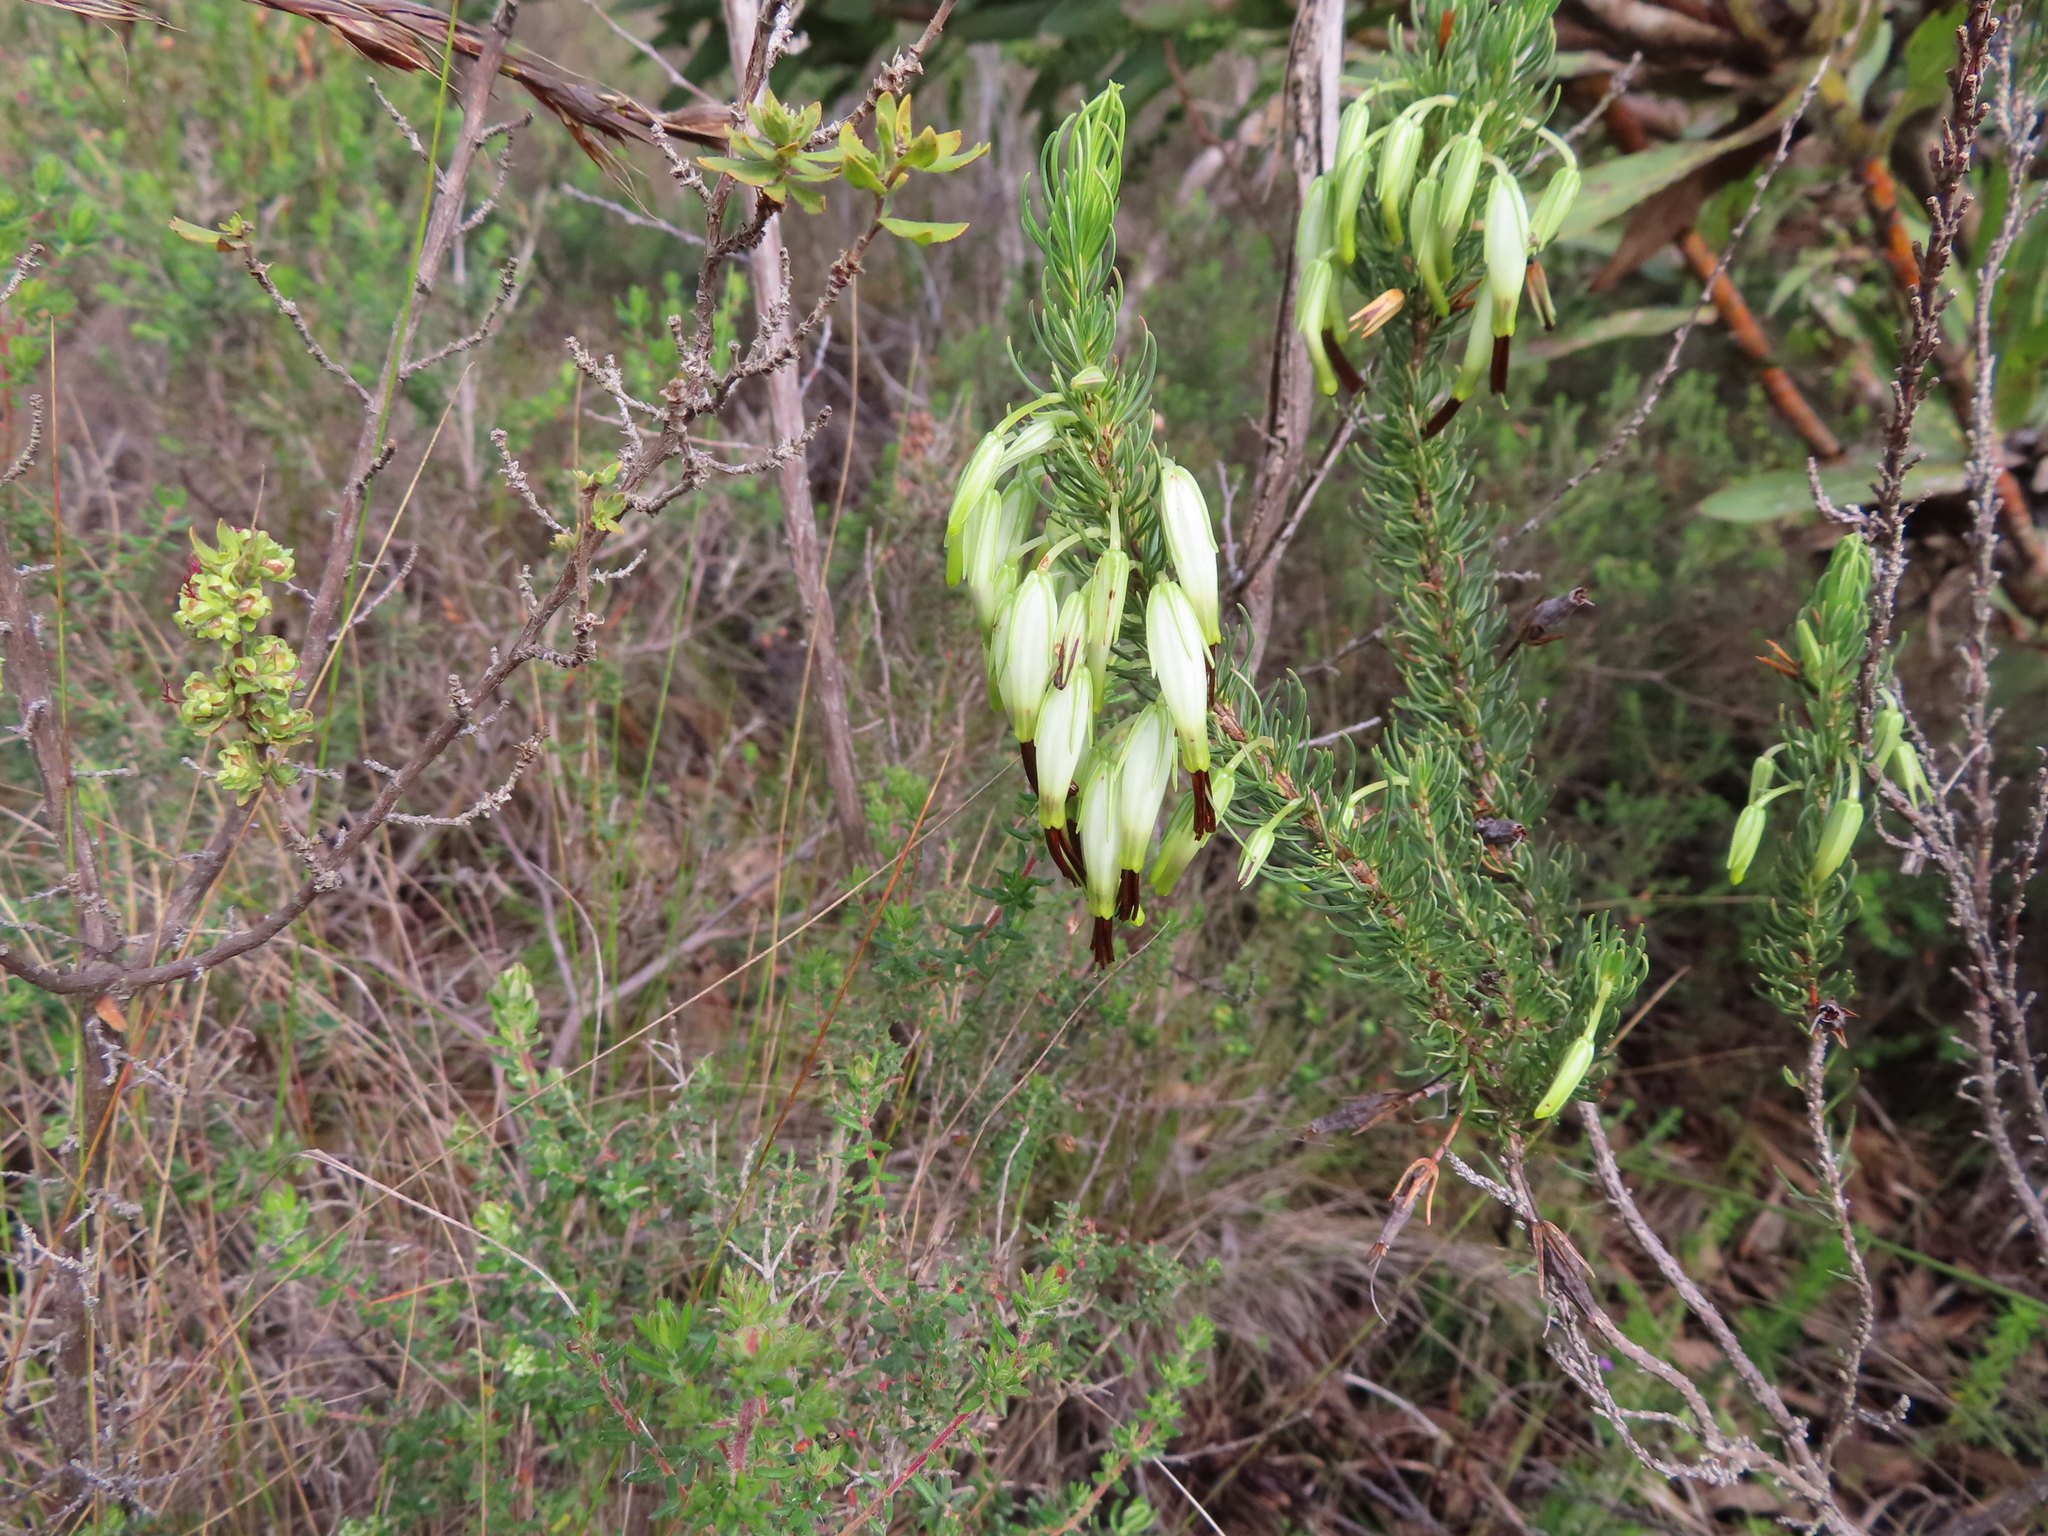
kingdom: Plantae
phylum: Tracheophyta
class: Magnoliopsida
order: Ericales
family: Ericaceae
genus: Erica
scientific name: Erica plukenetii
